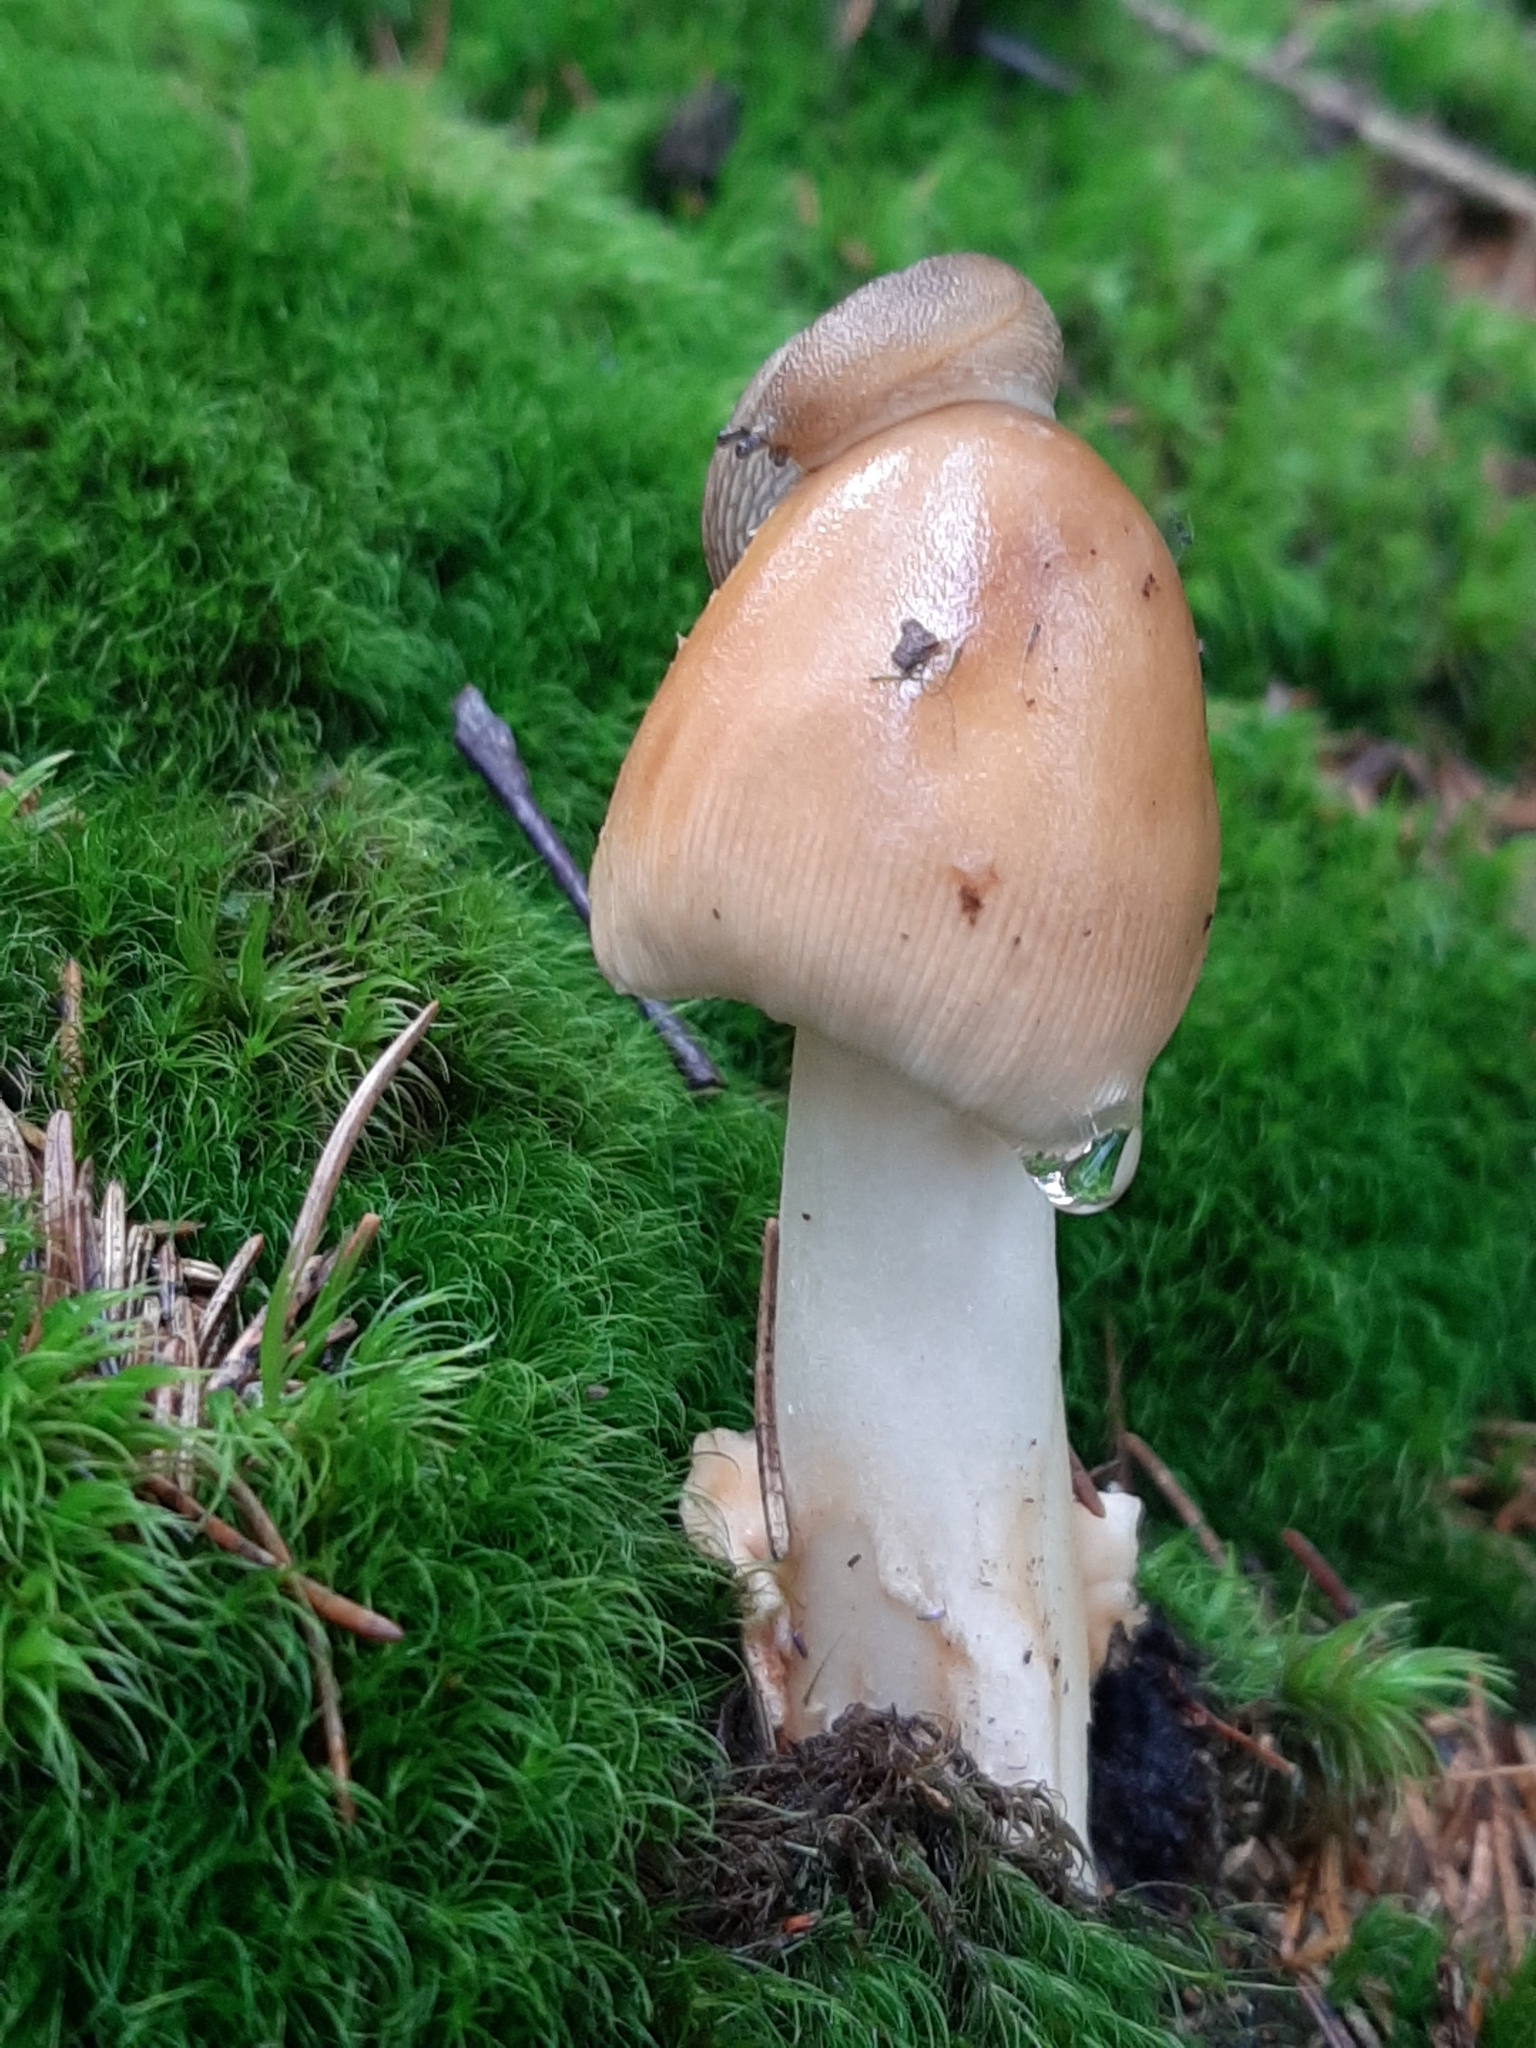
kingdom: Fungi
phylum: Basidiomycota
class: Agaricomycetes
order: Agaricales
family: Amanitaceae
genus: Amanita
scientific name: Amanita fulva
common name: Tawny grisette
